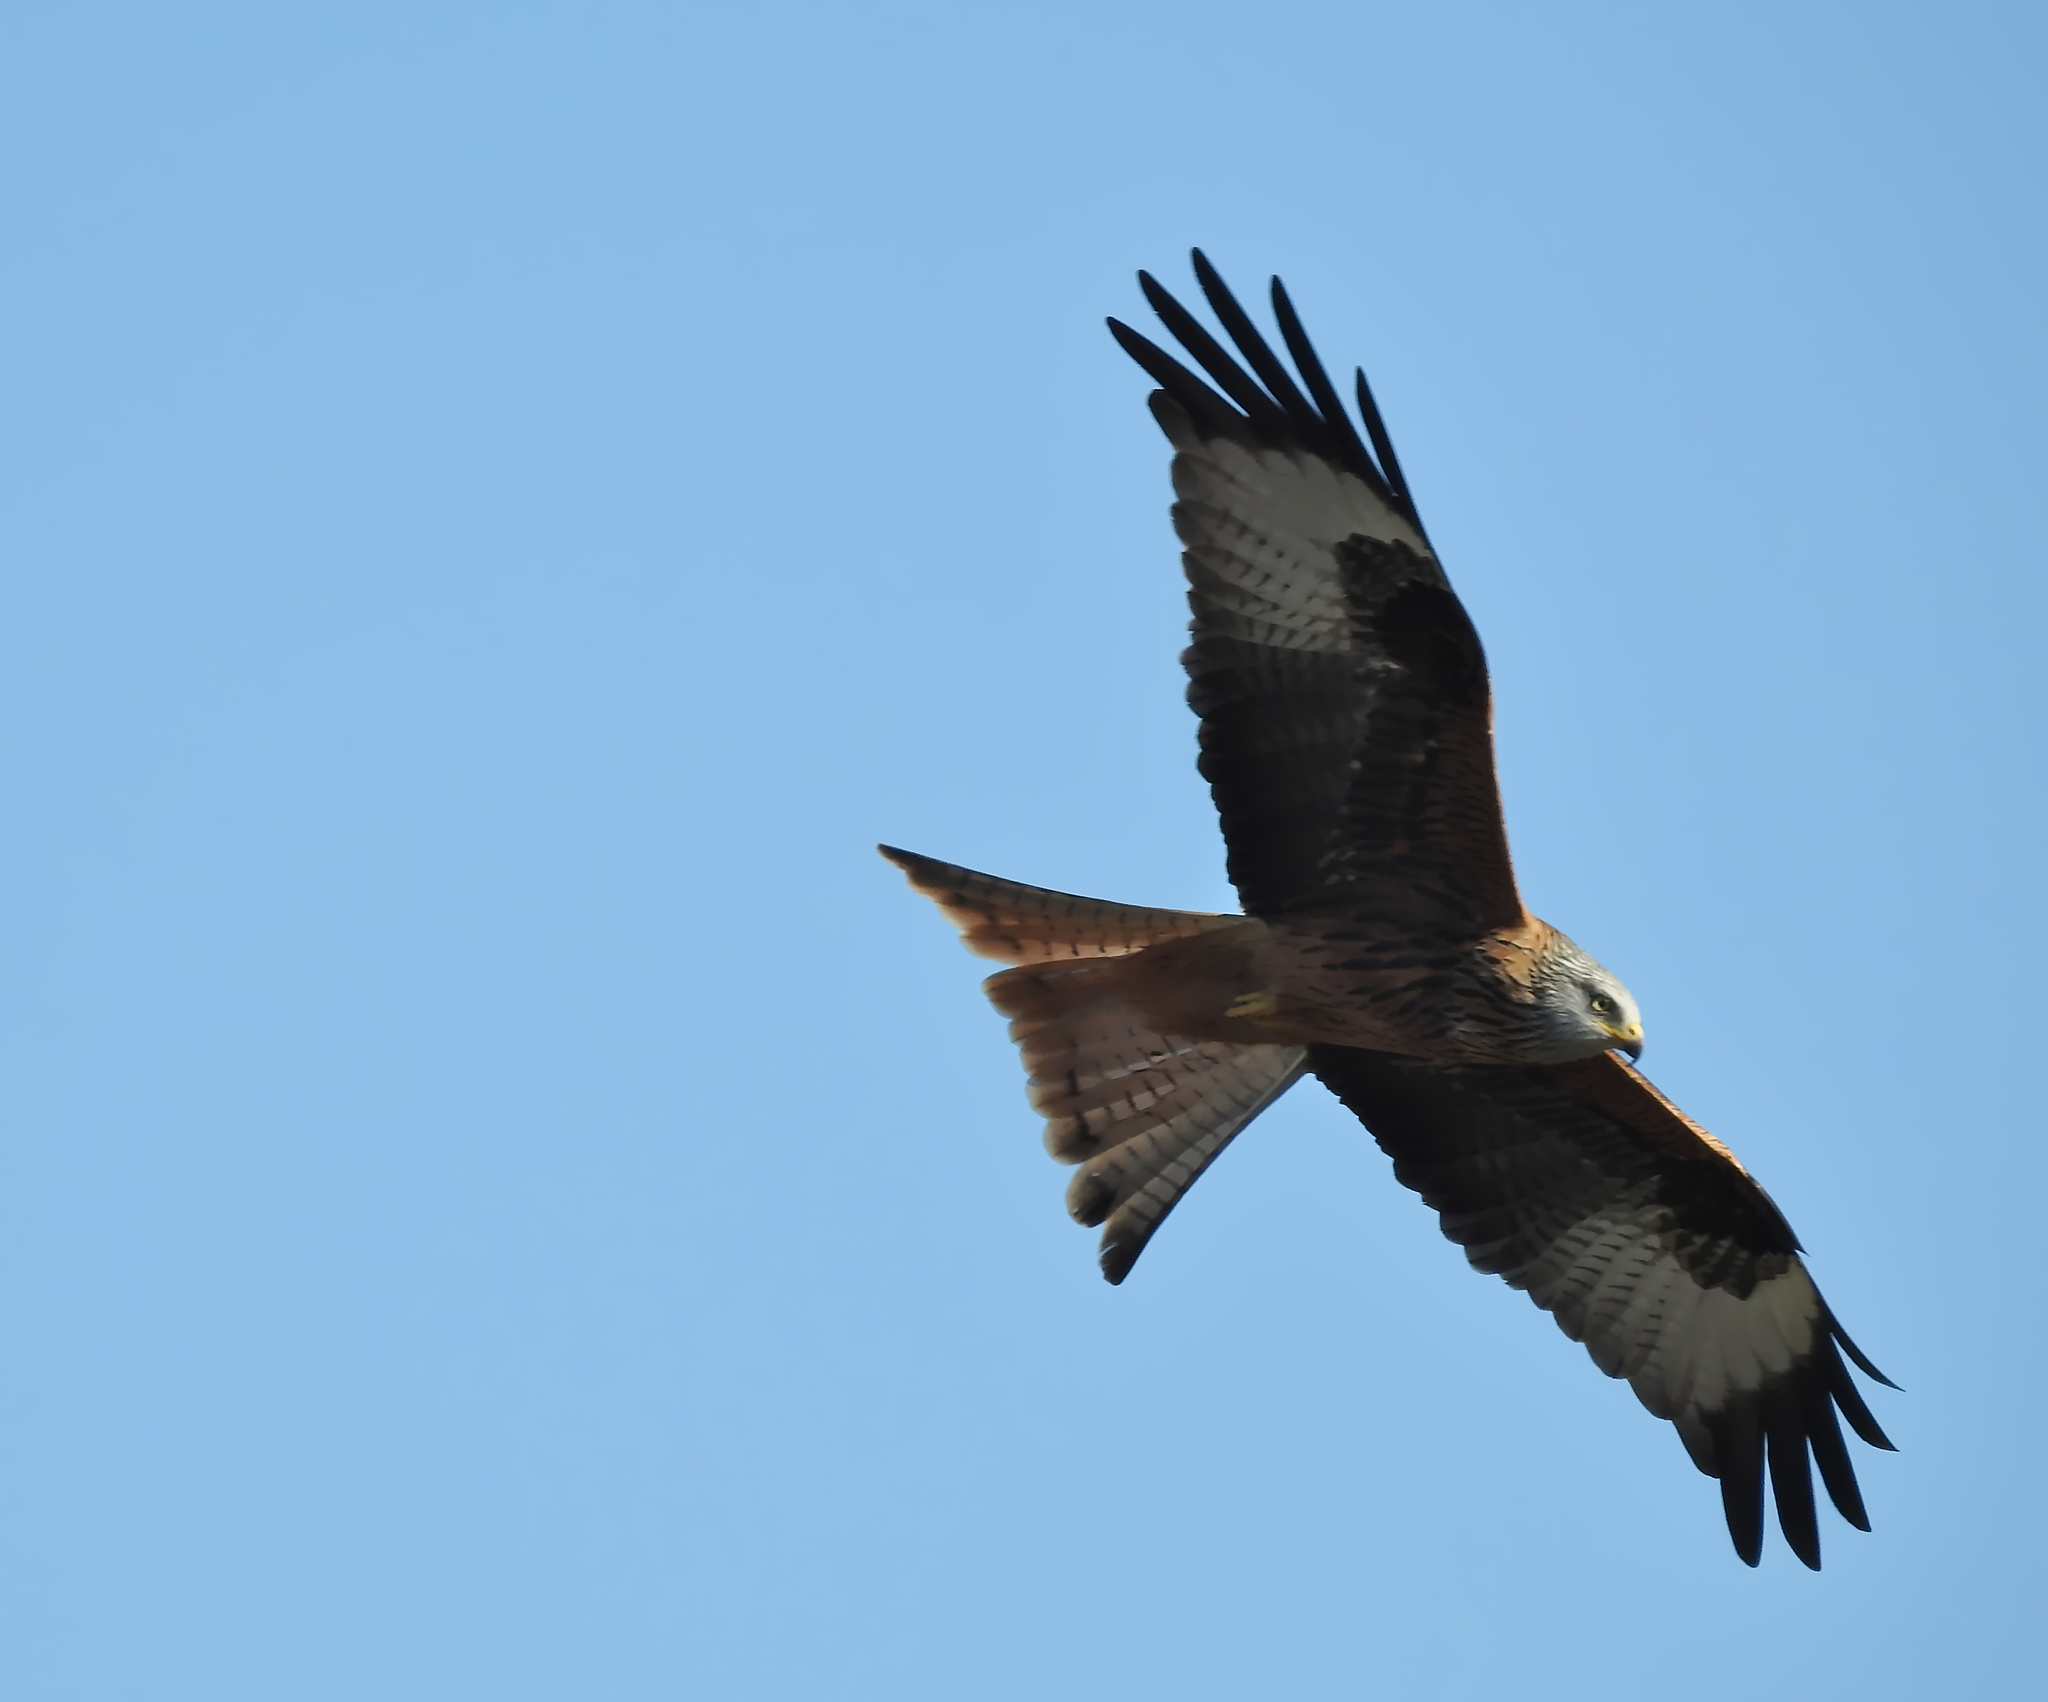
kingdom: Animalia
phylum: Chordata
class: Aves
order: Accipitriformes
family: Accipitridae
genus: Milvus
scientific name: Milvus milvus
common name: Red kite
